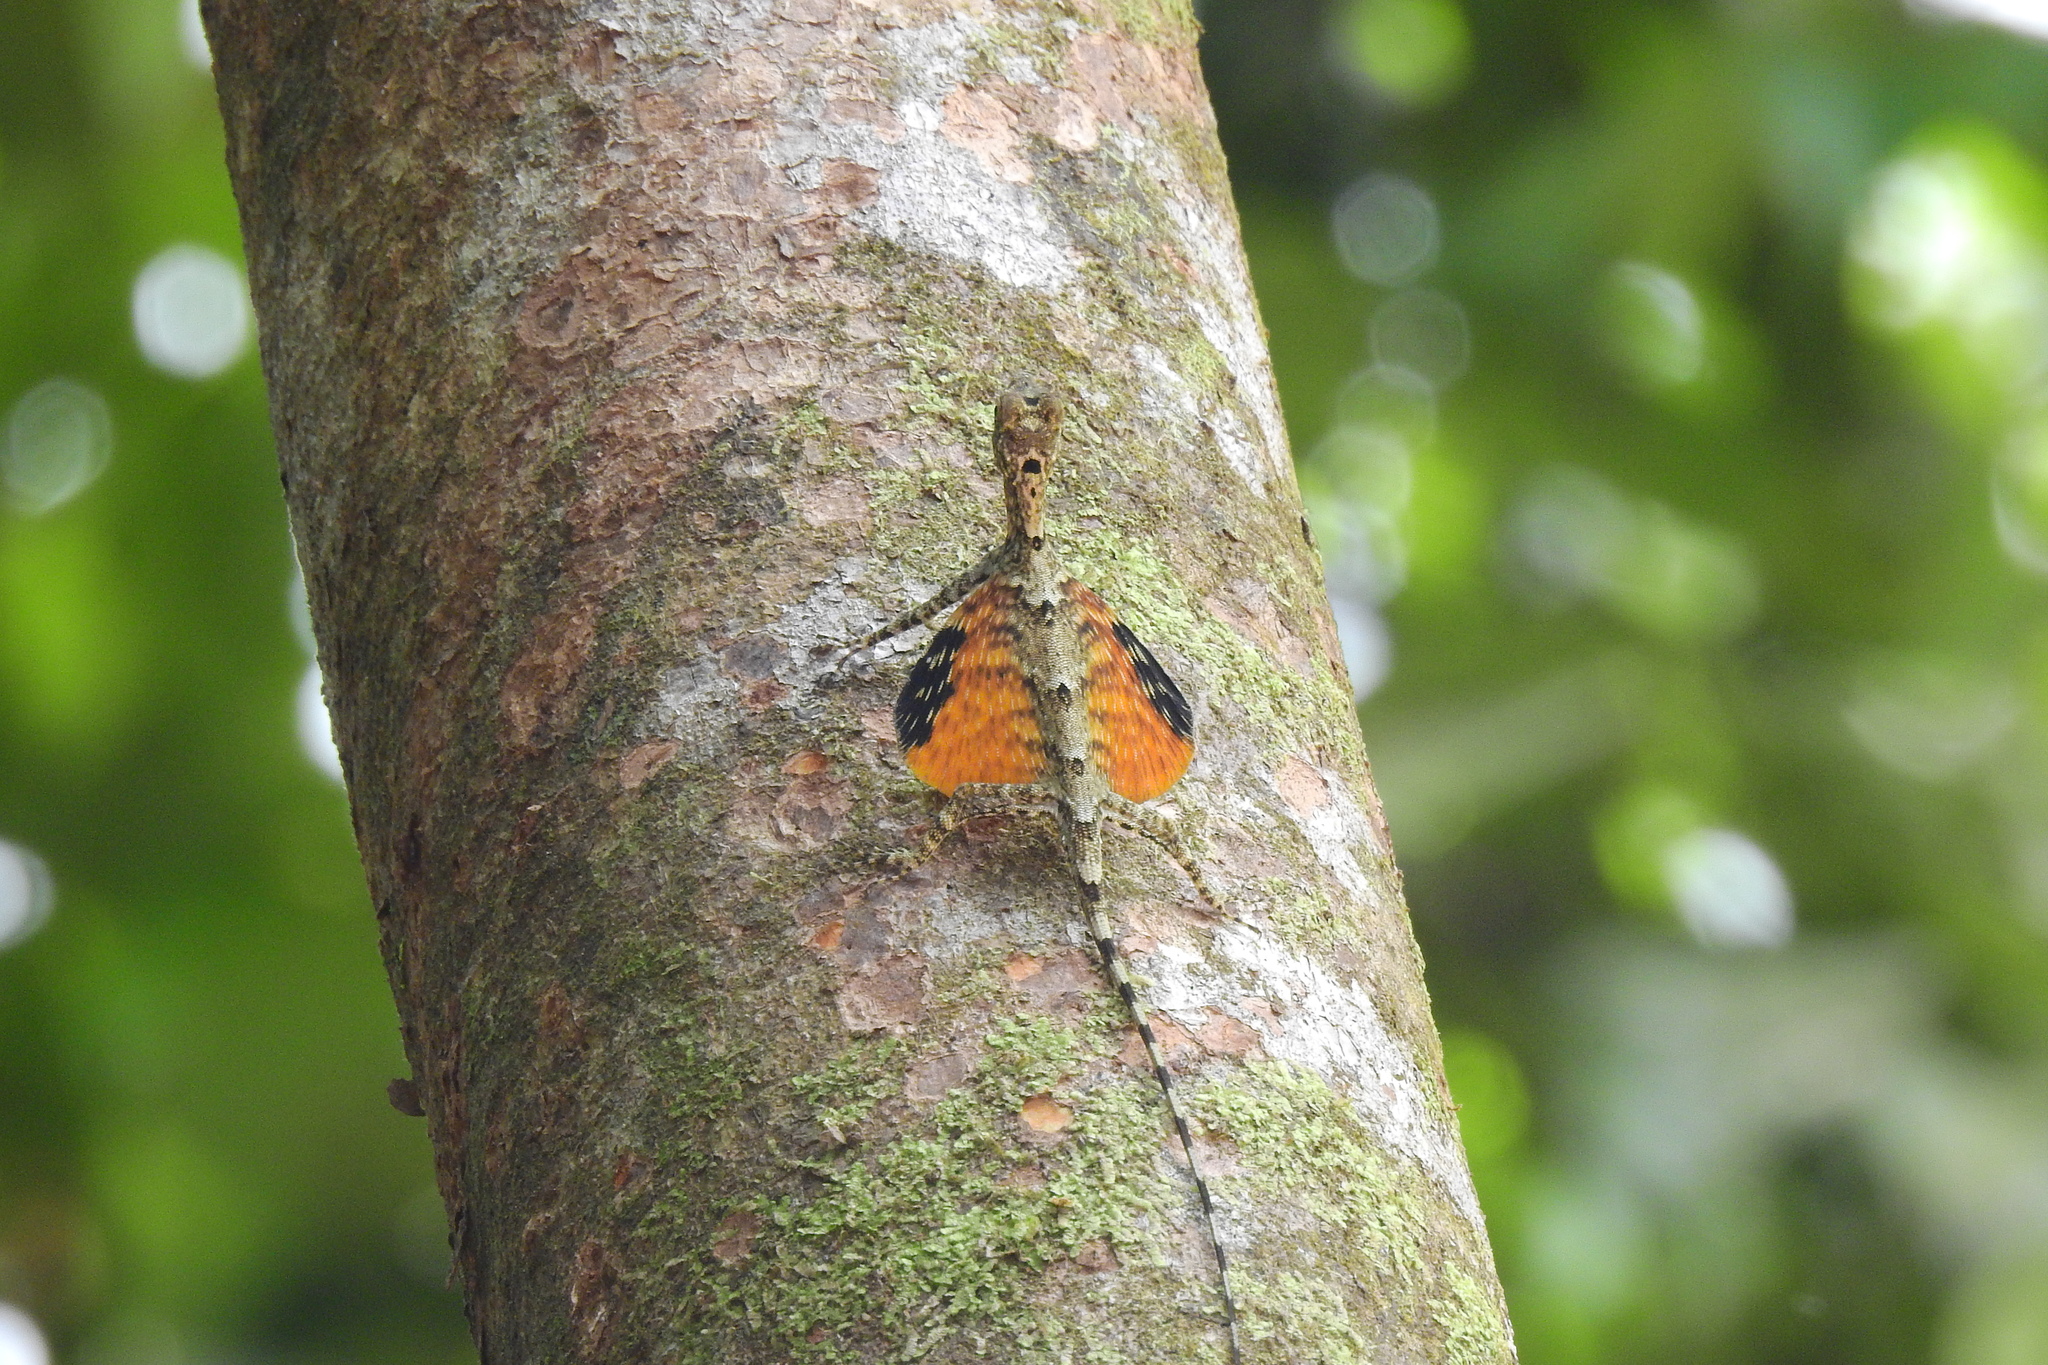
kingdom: Animalia
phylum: Chordata
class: Squamata
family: Agamidae
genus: Draco
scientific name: Draco beccarii
